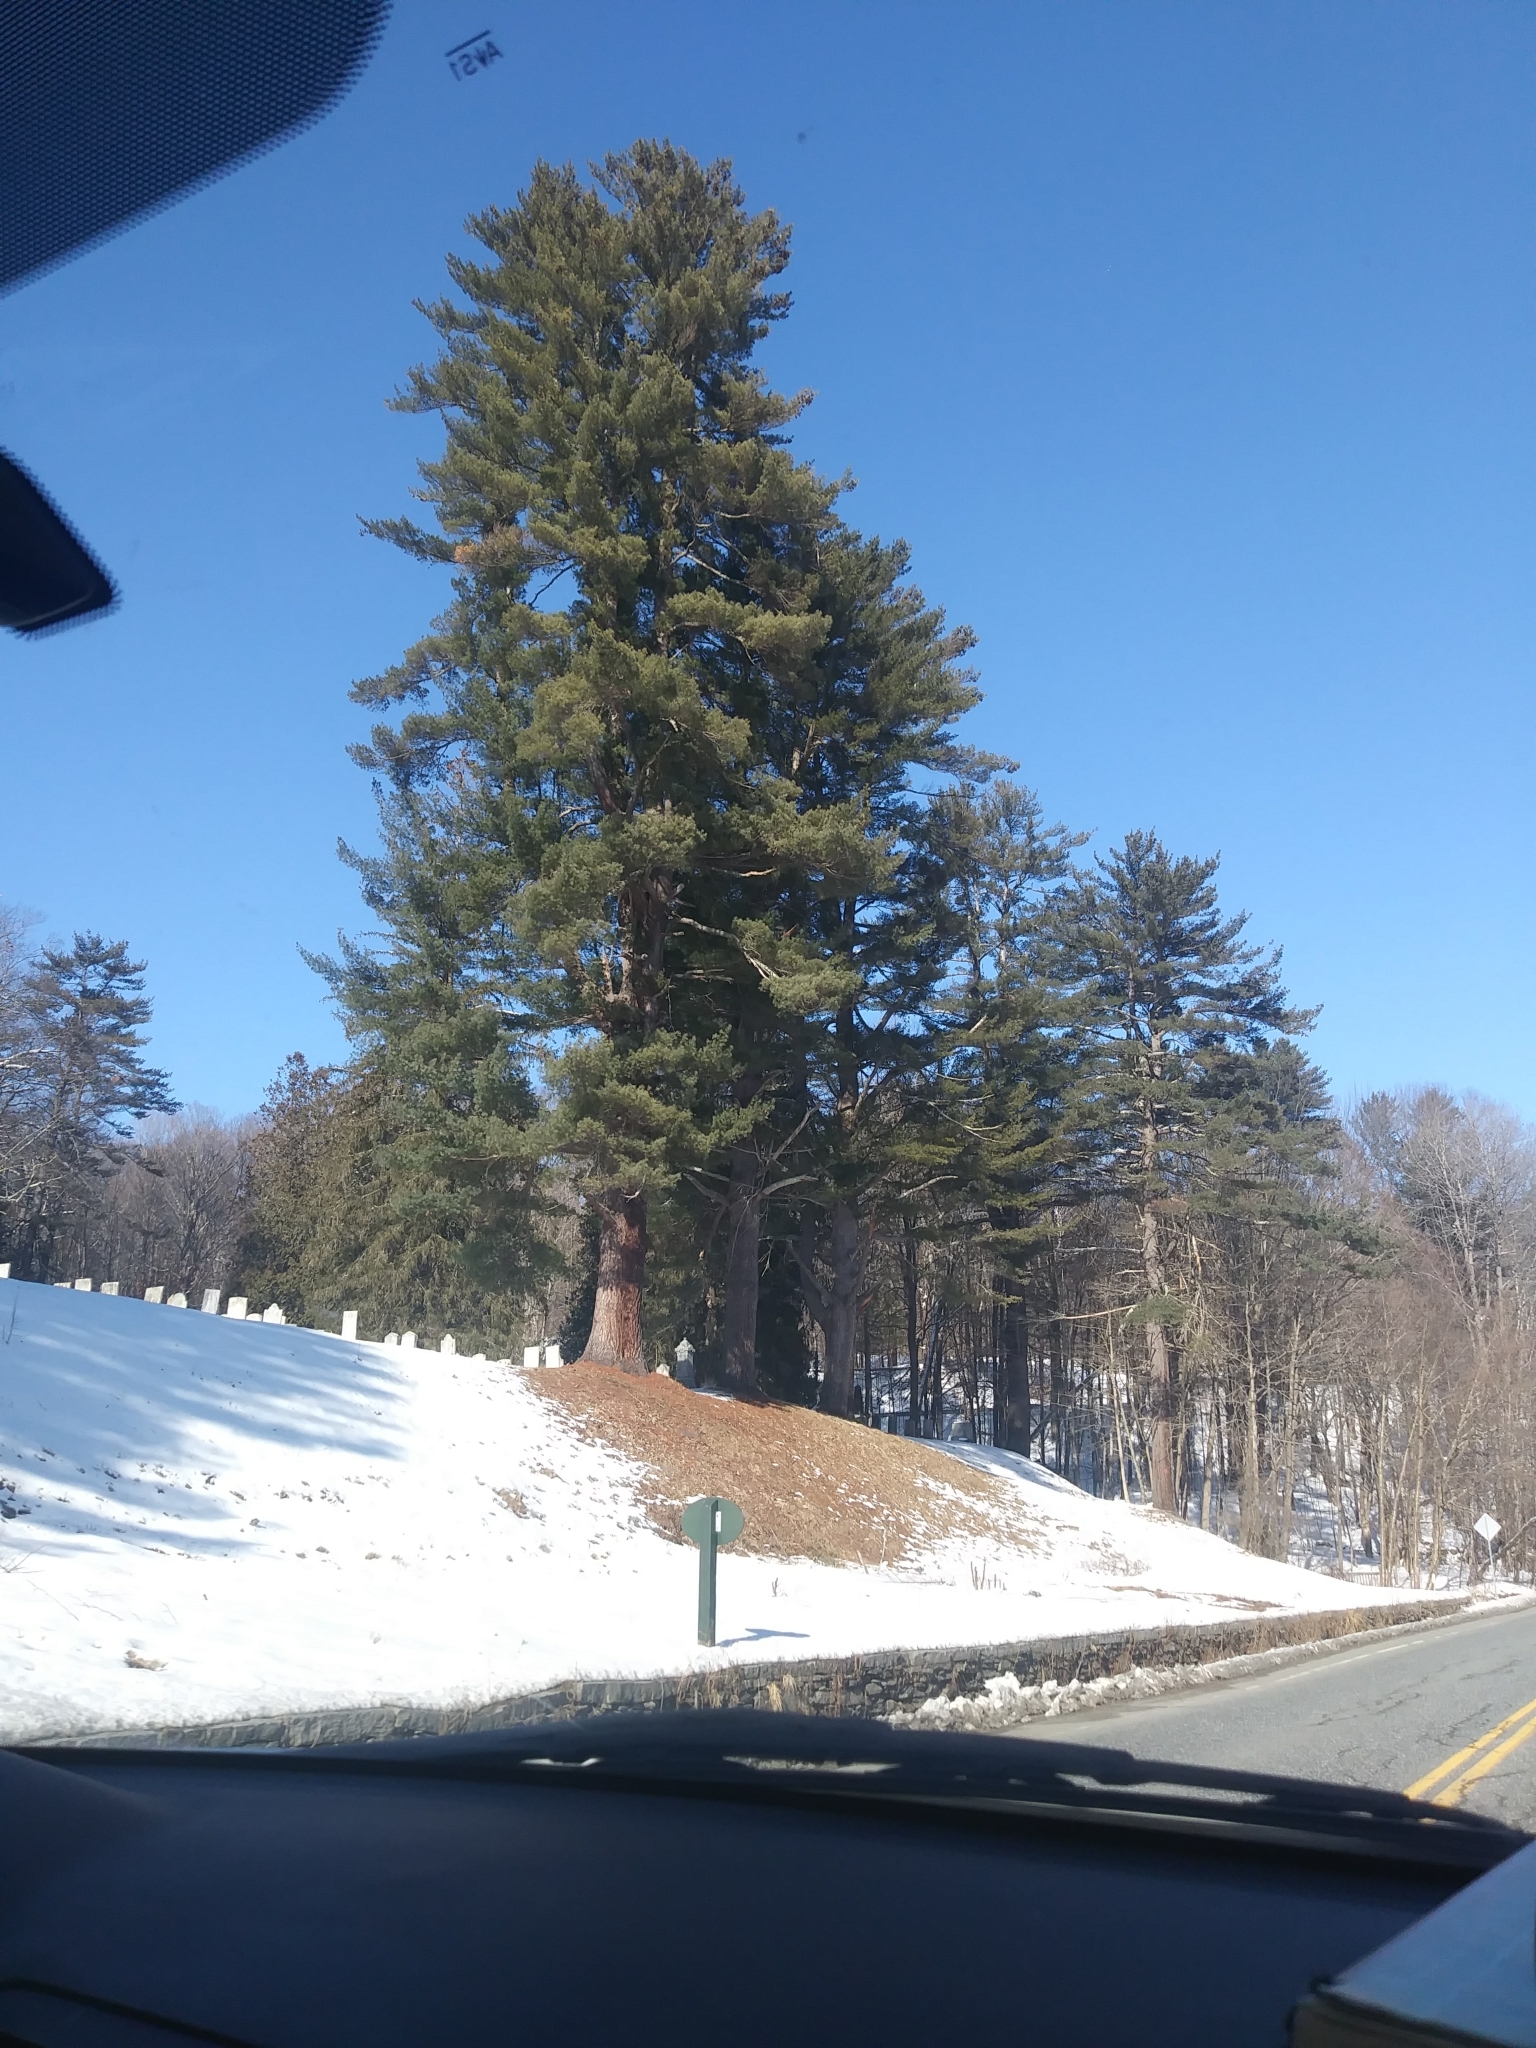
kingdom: Plantae
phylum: Tracheophyta
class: Pinopsida
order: Pinales
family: Pinaceae
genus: Pinus
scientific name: Pinus strobus
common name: Weymouth pine
